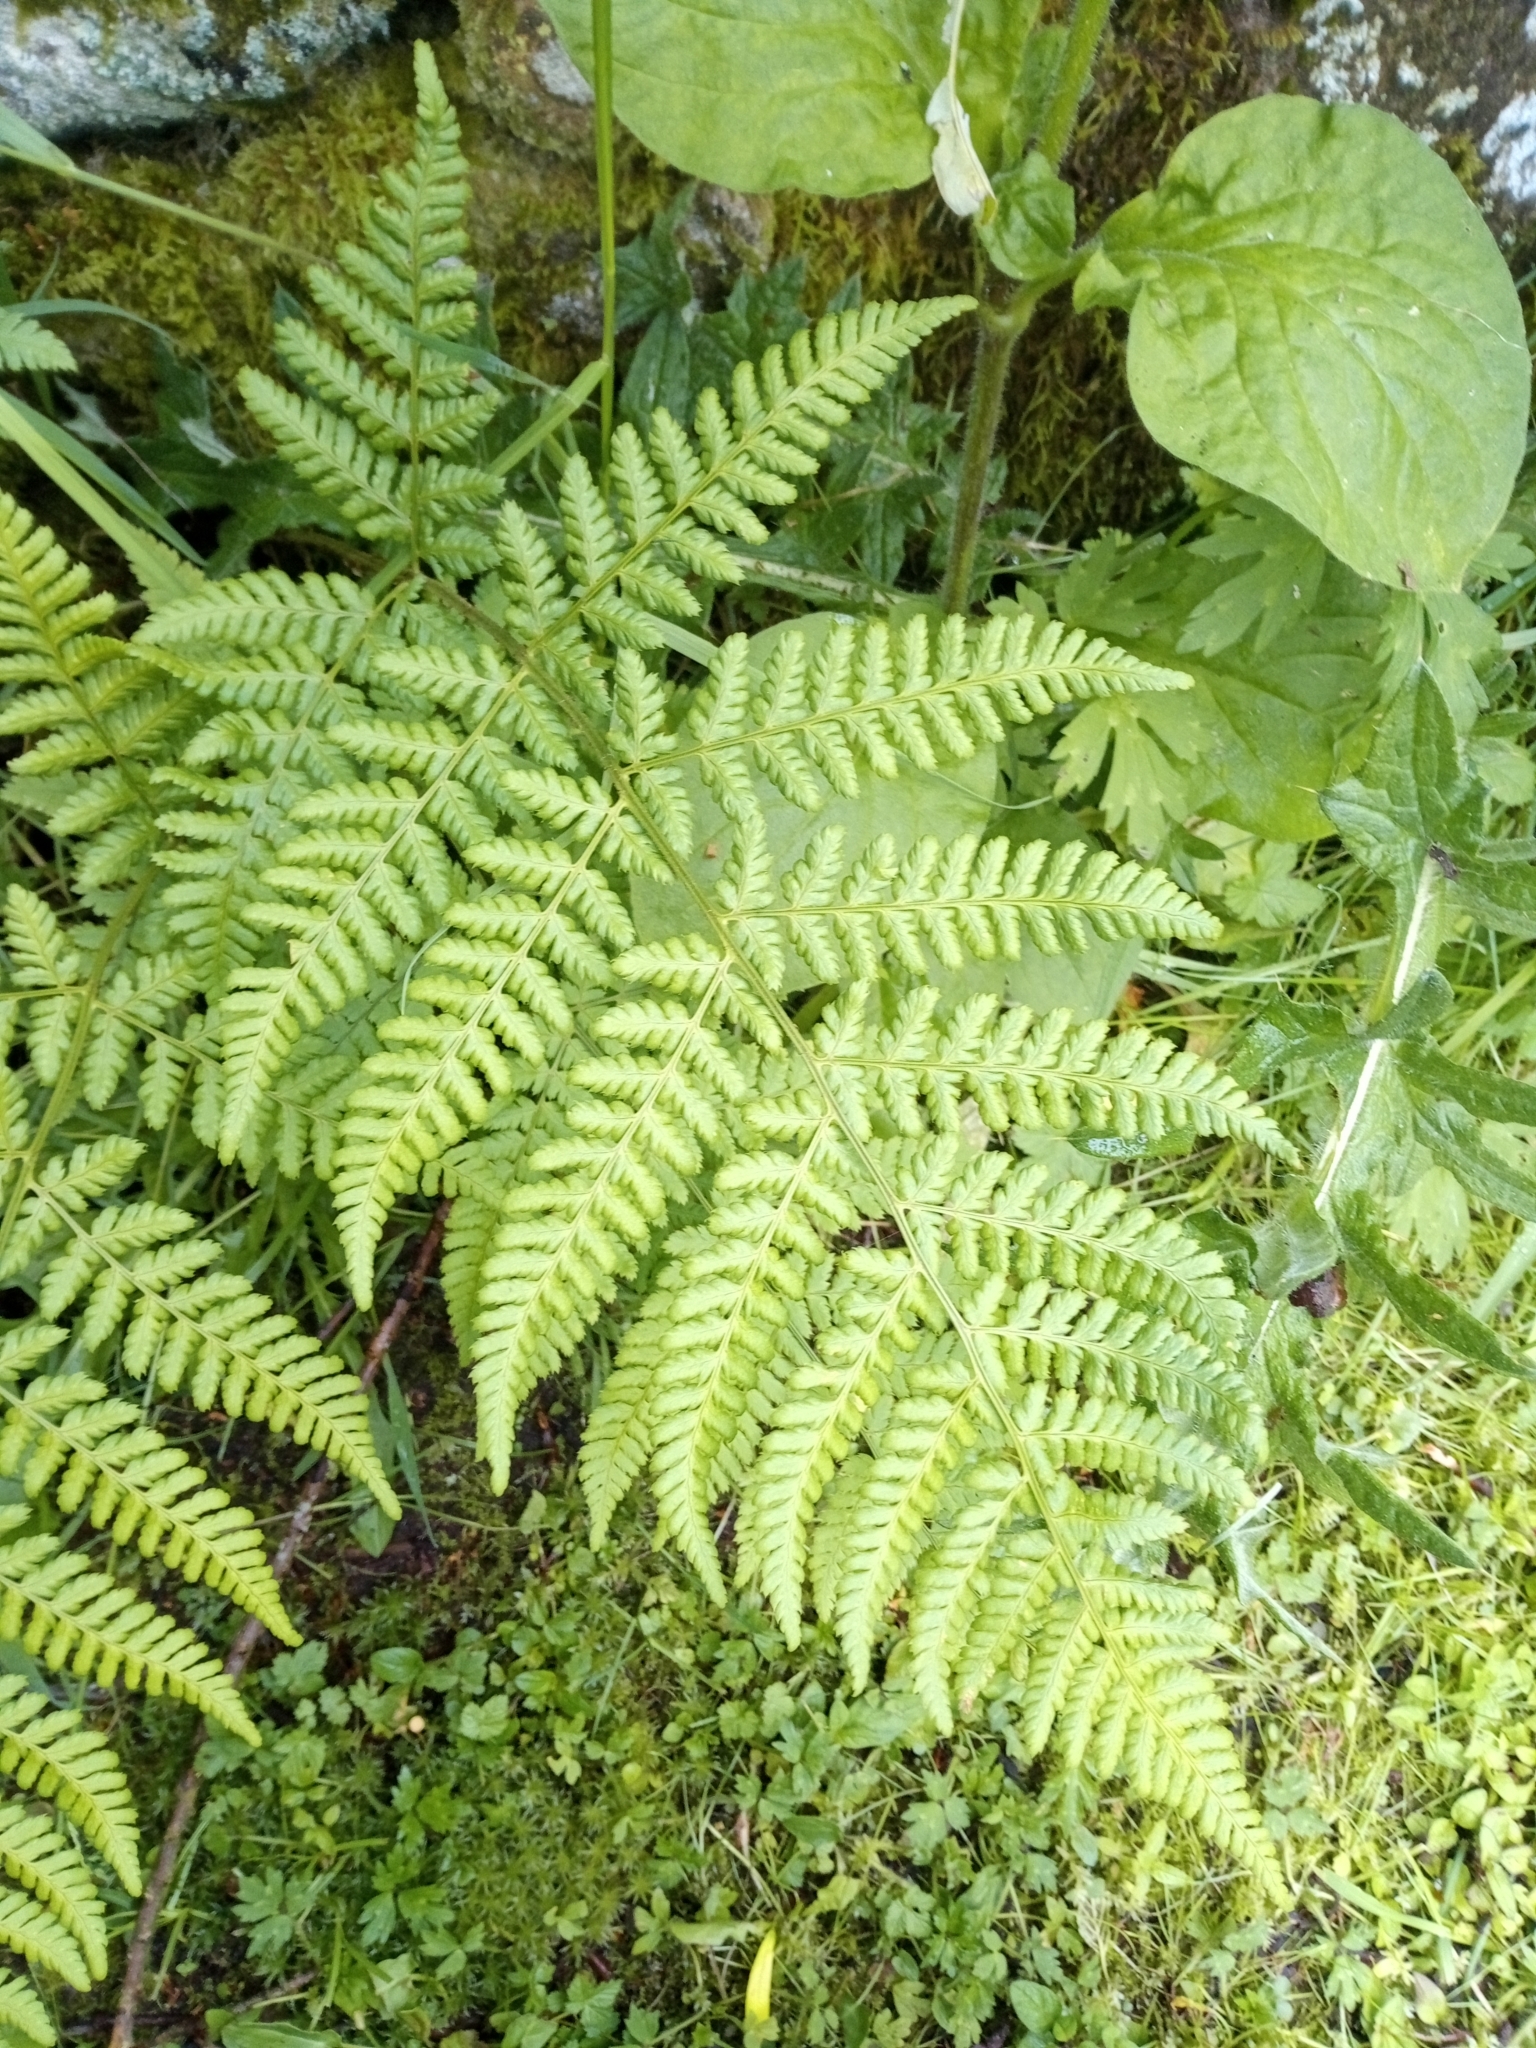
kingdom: Plantae
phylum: Tracheophyta
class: Polypodiopsida
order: Polypodiales
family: Dryopteridaceae
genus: Dryopteris
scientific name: Dryopteris dilatata
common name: Broad buckler-fern
